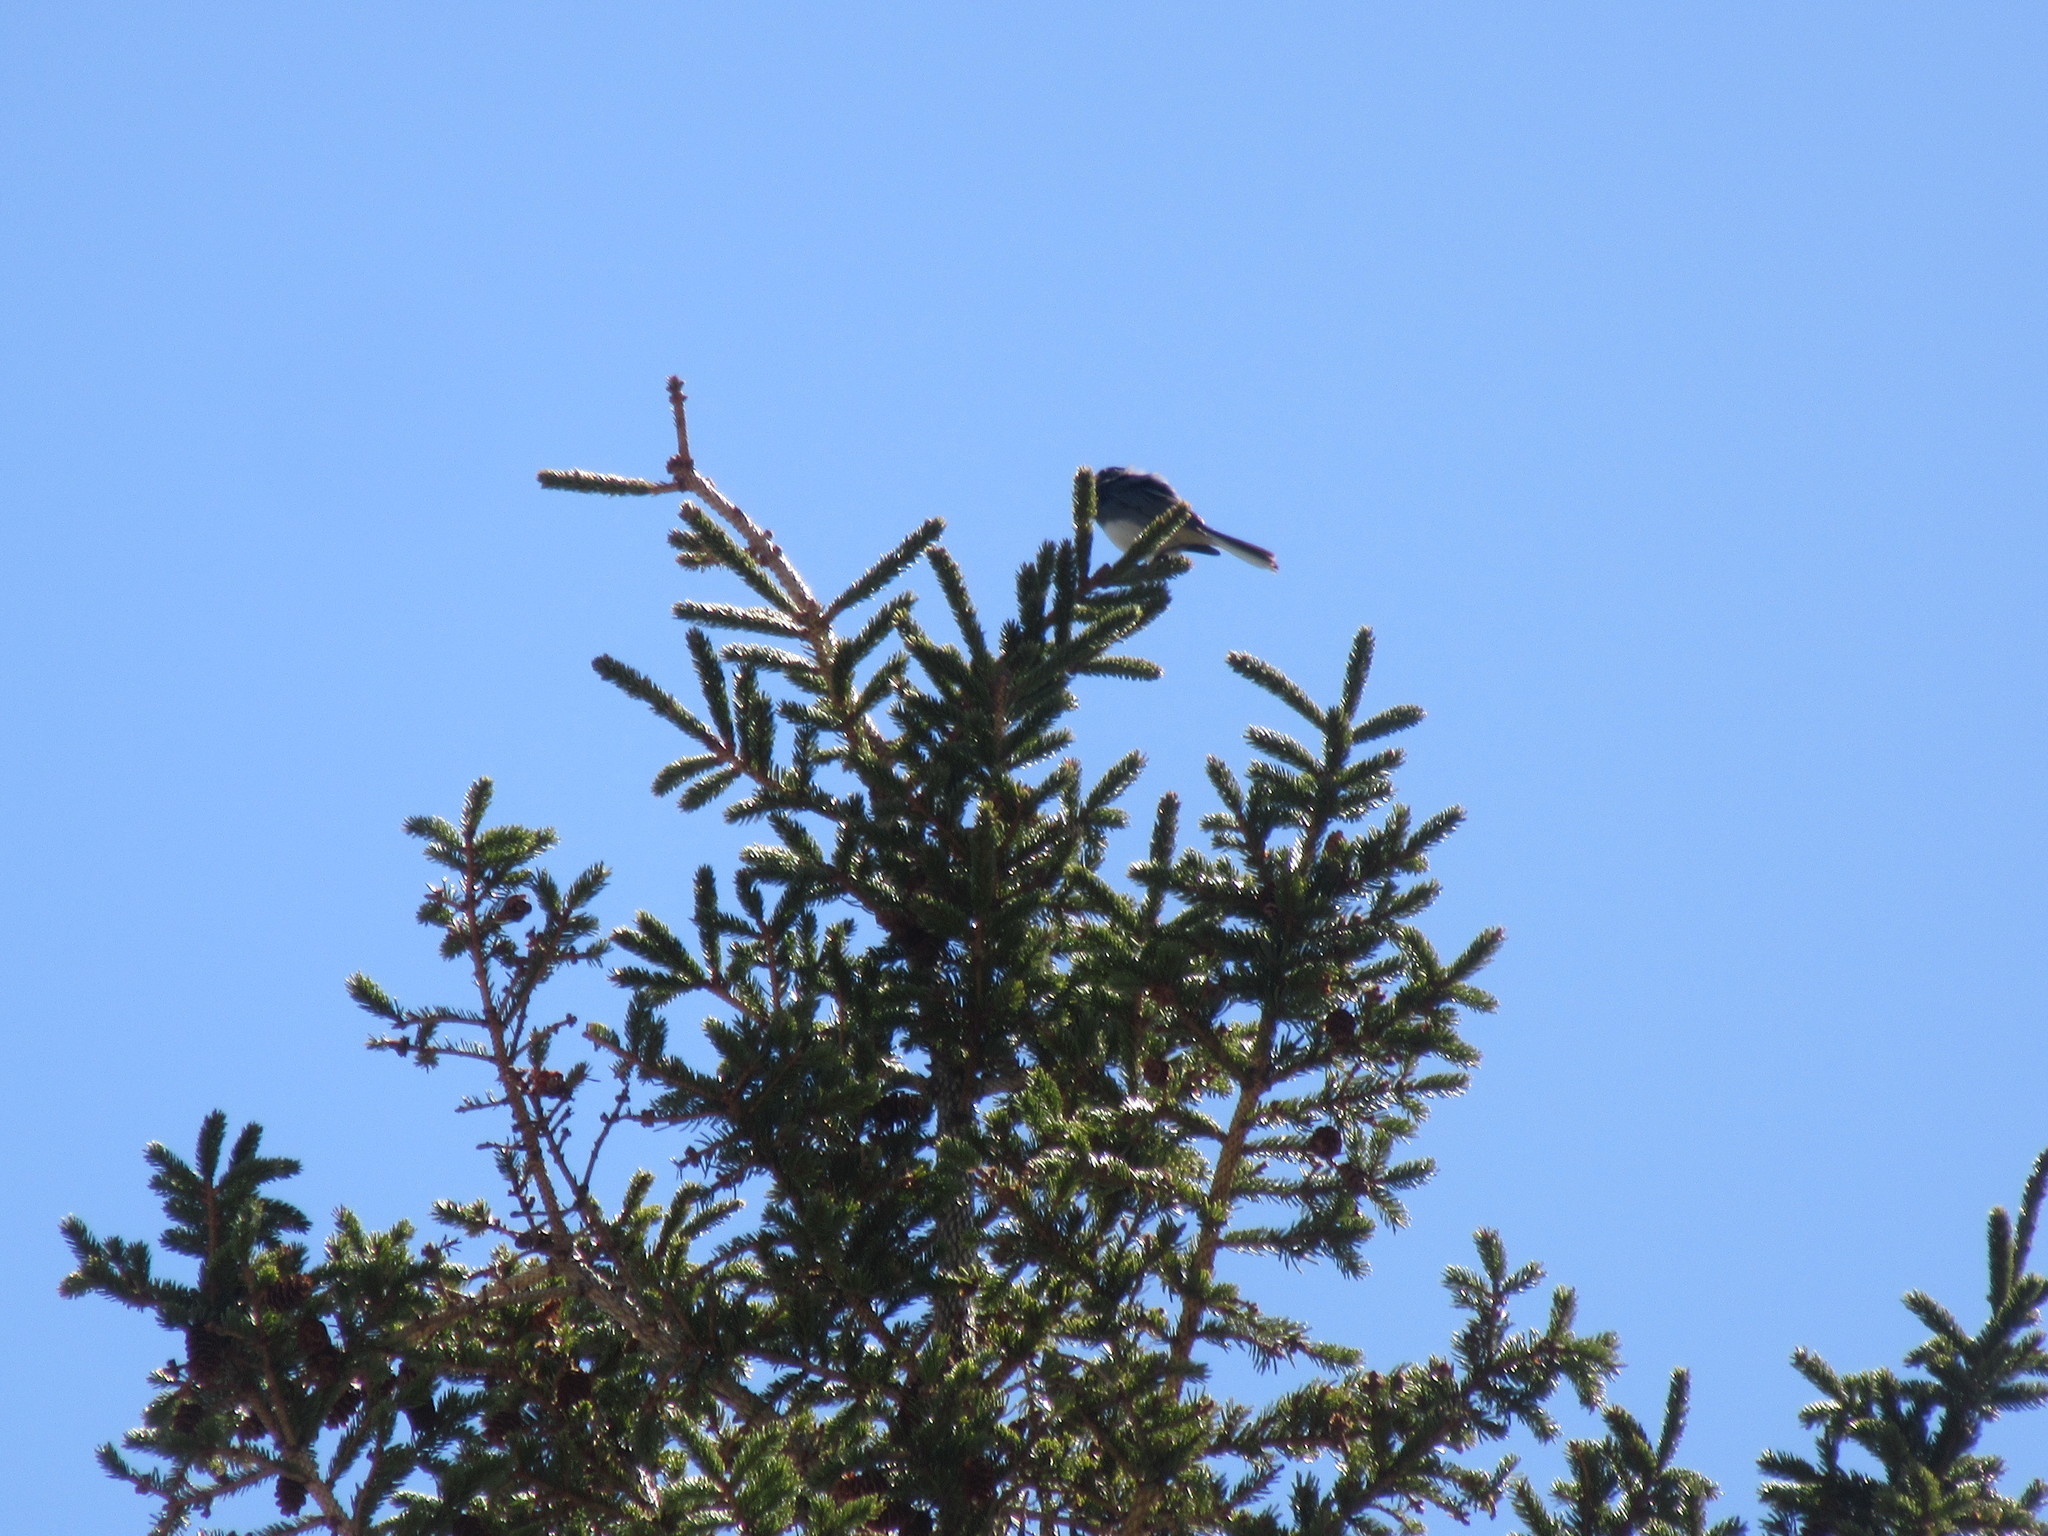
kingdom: Animalia
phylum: Chordata
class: Aves
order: Passeriformes
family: Passerellidae
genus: Junco
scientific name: Junco hyemalis
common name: Dark-eyed junco
